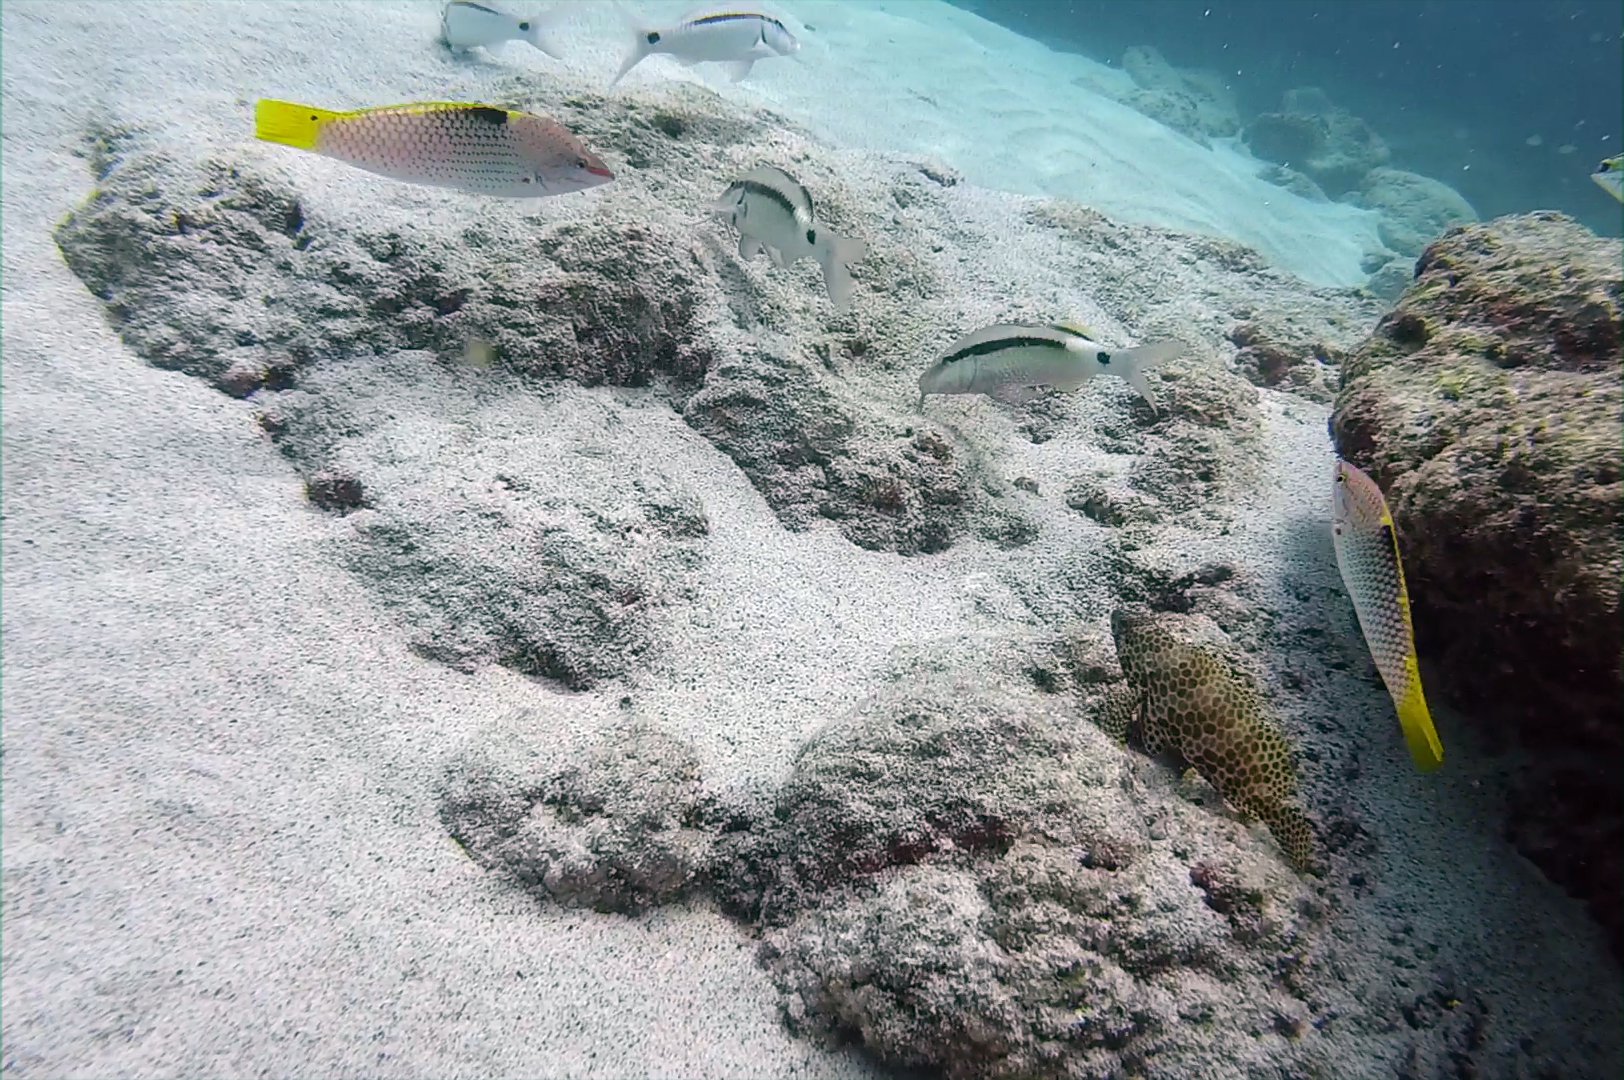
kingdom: Animalia
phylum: Chordata
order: Perciformes
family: Labridae
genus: Halichoeres
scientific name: Halichoeres hortulanus
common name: Checkerboard wrasse
